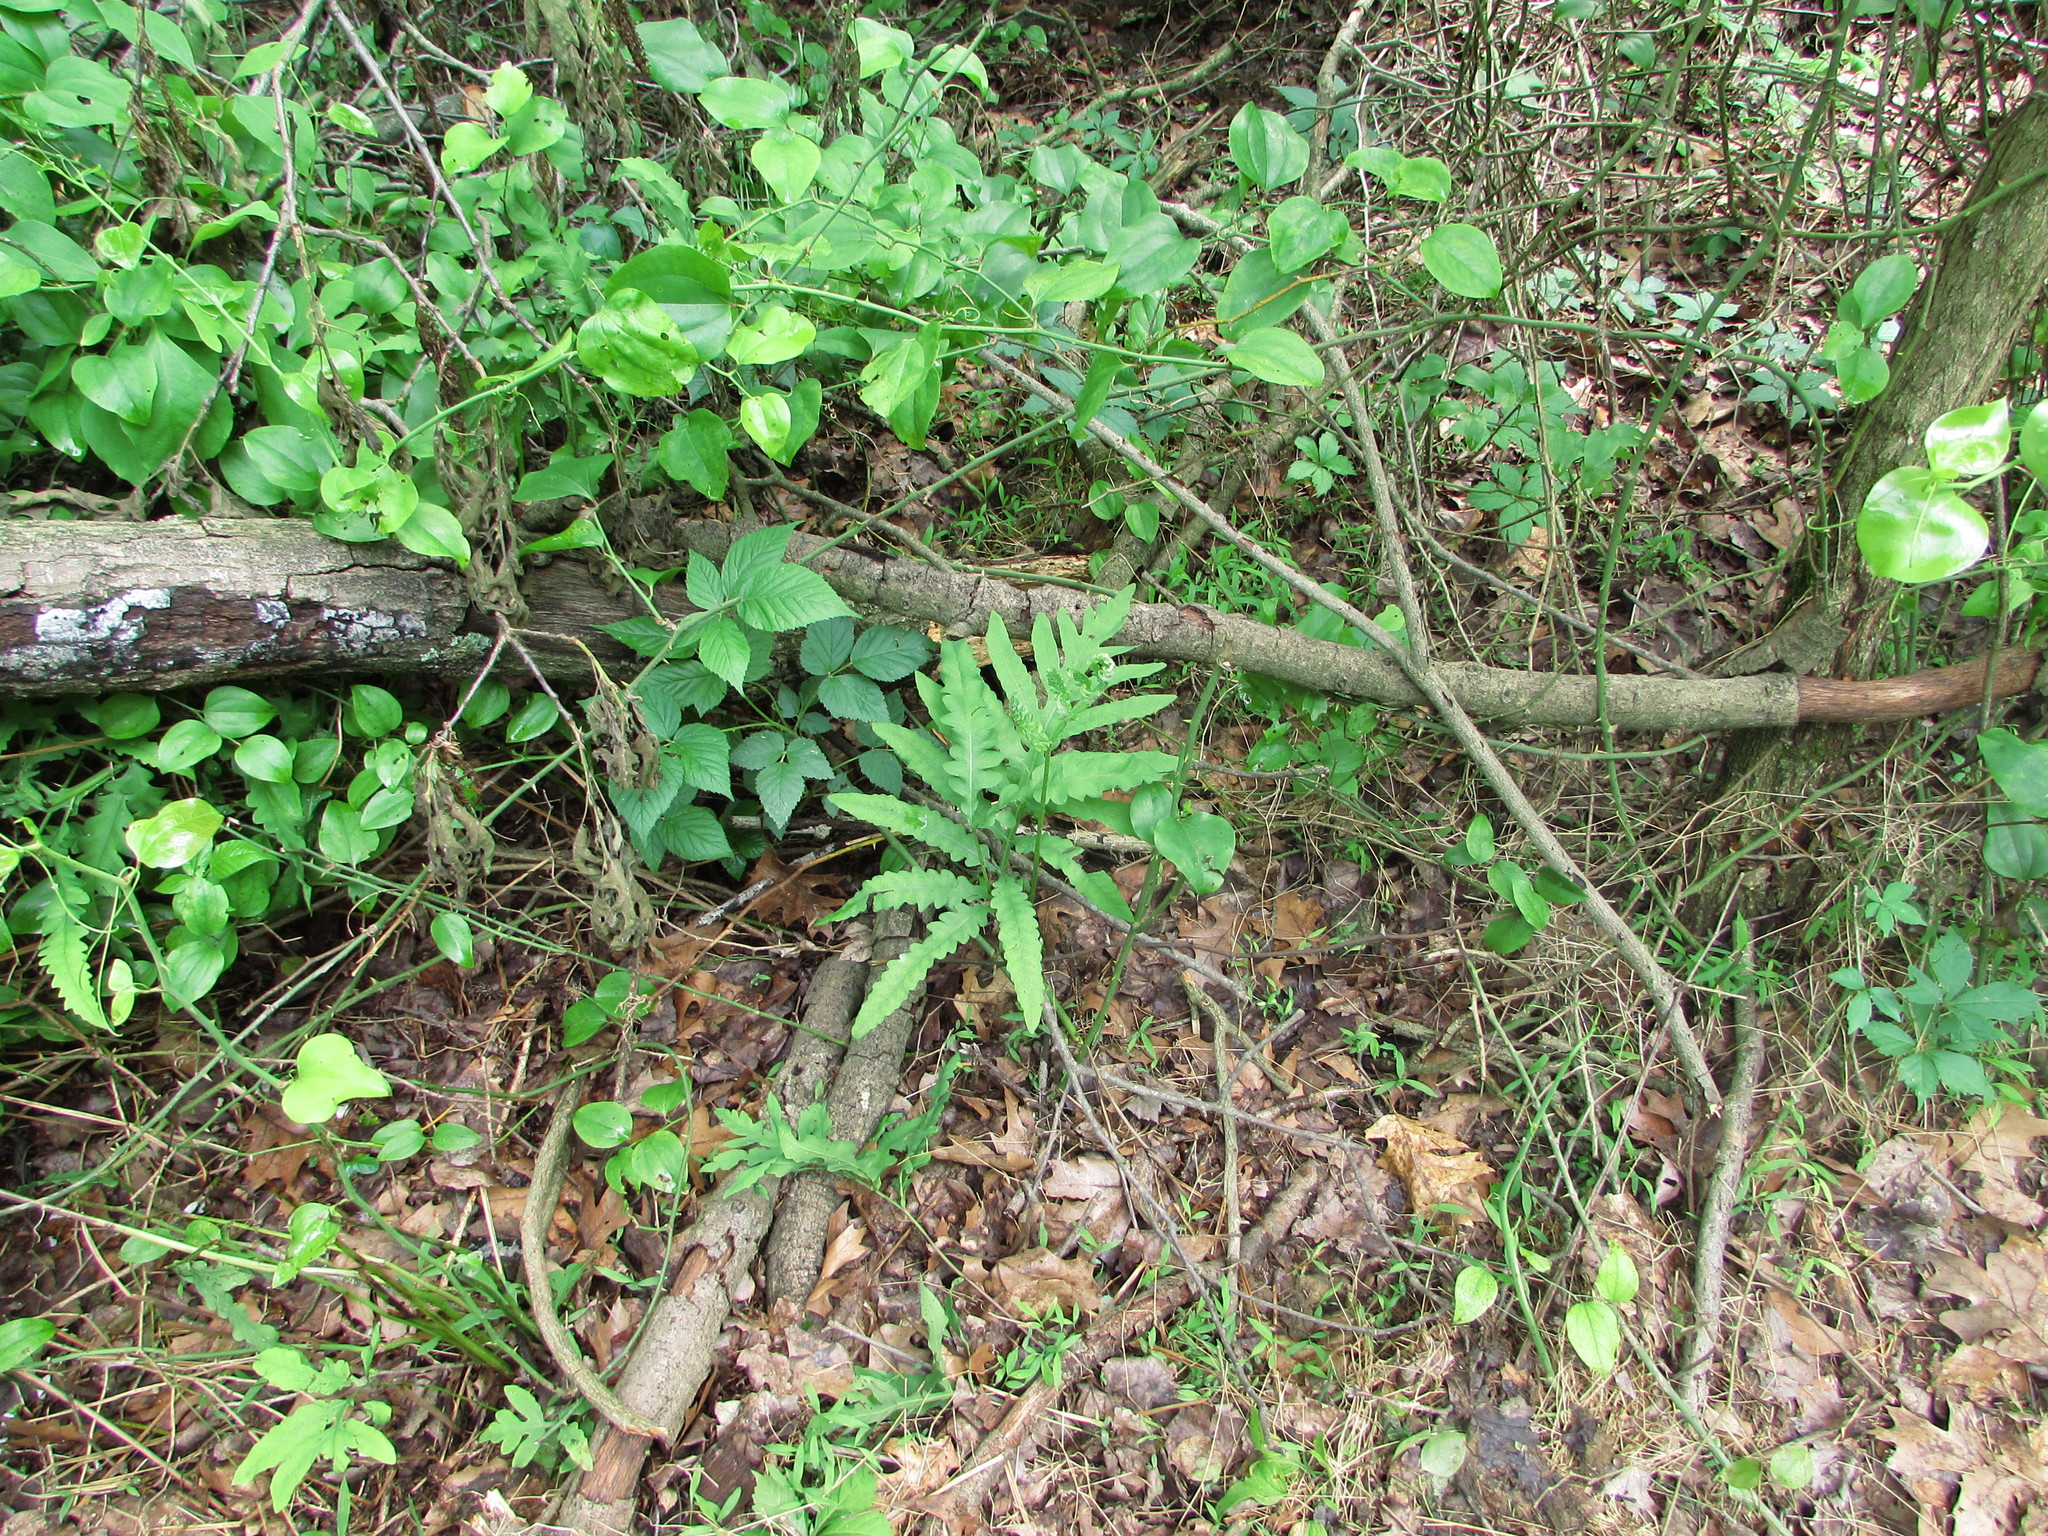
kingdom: Plantae
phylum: Tracheophyta
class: Polypodiopsida
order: Polypodiales
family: Onocleaceae
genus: Onoclea
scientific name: Onoclea sensibilis
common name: Sensitive fern
